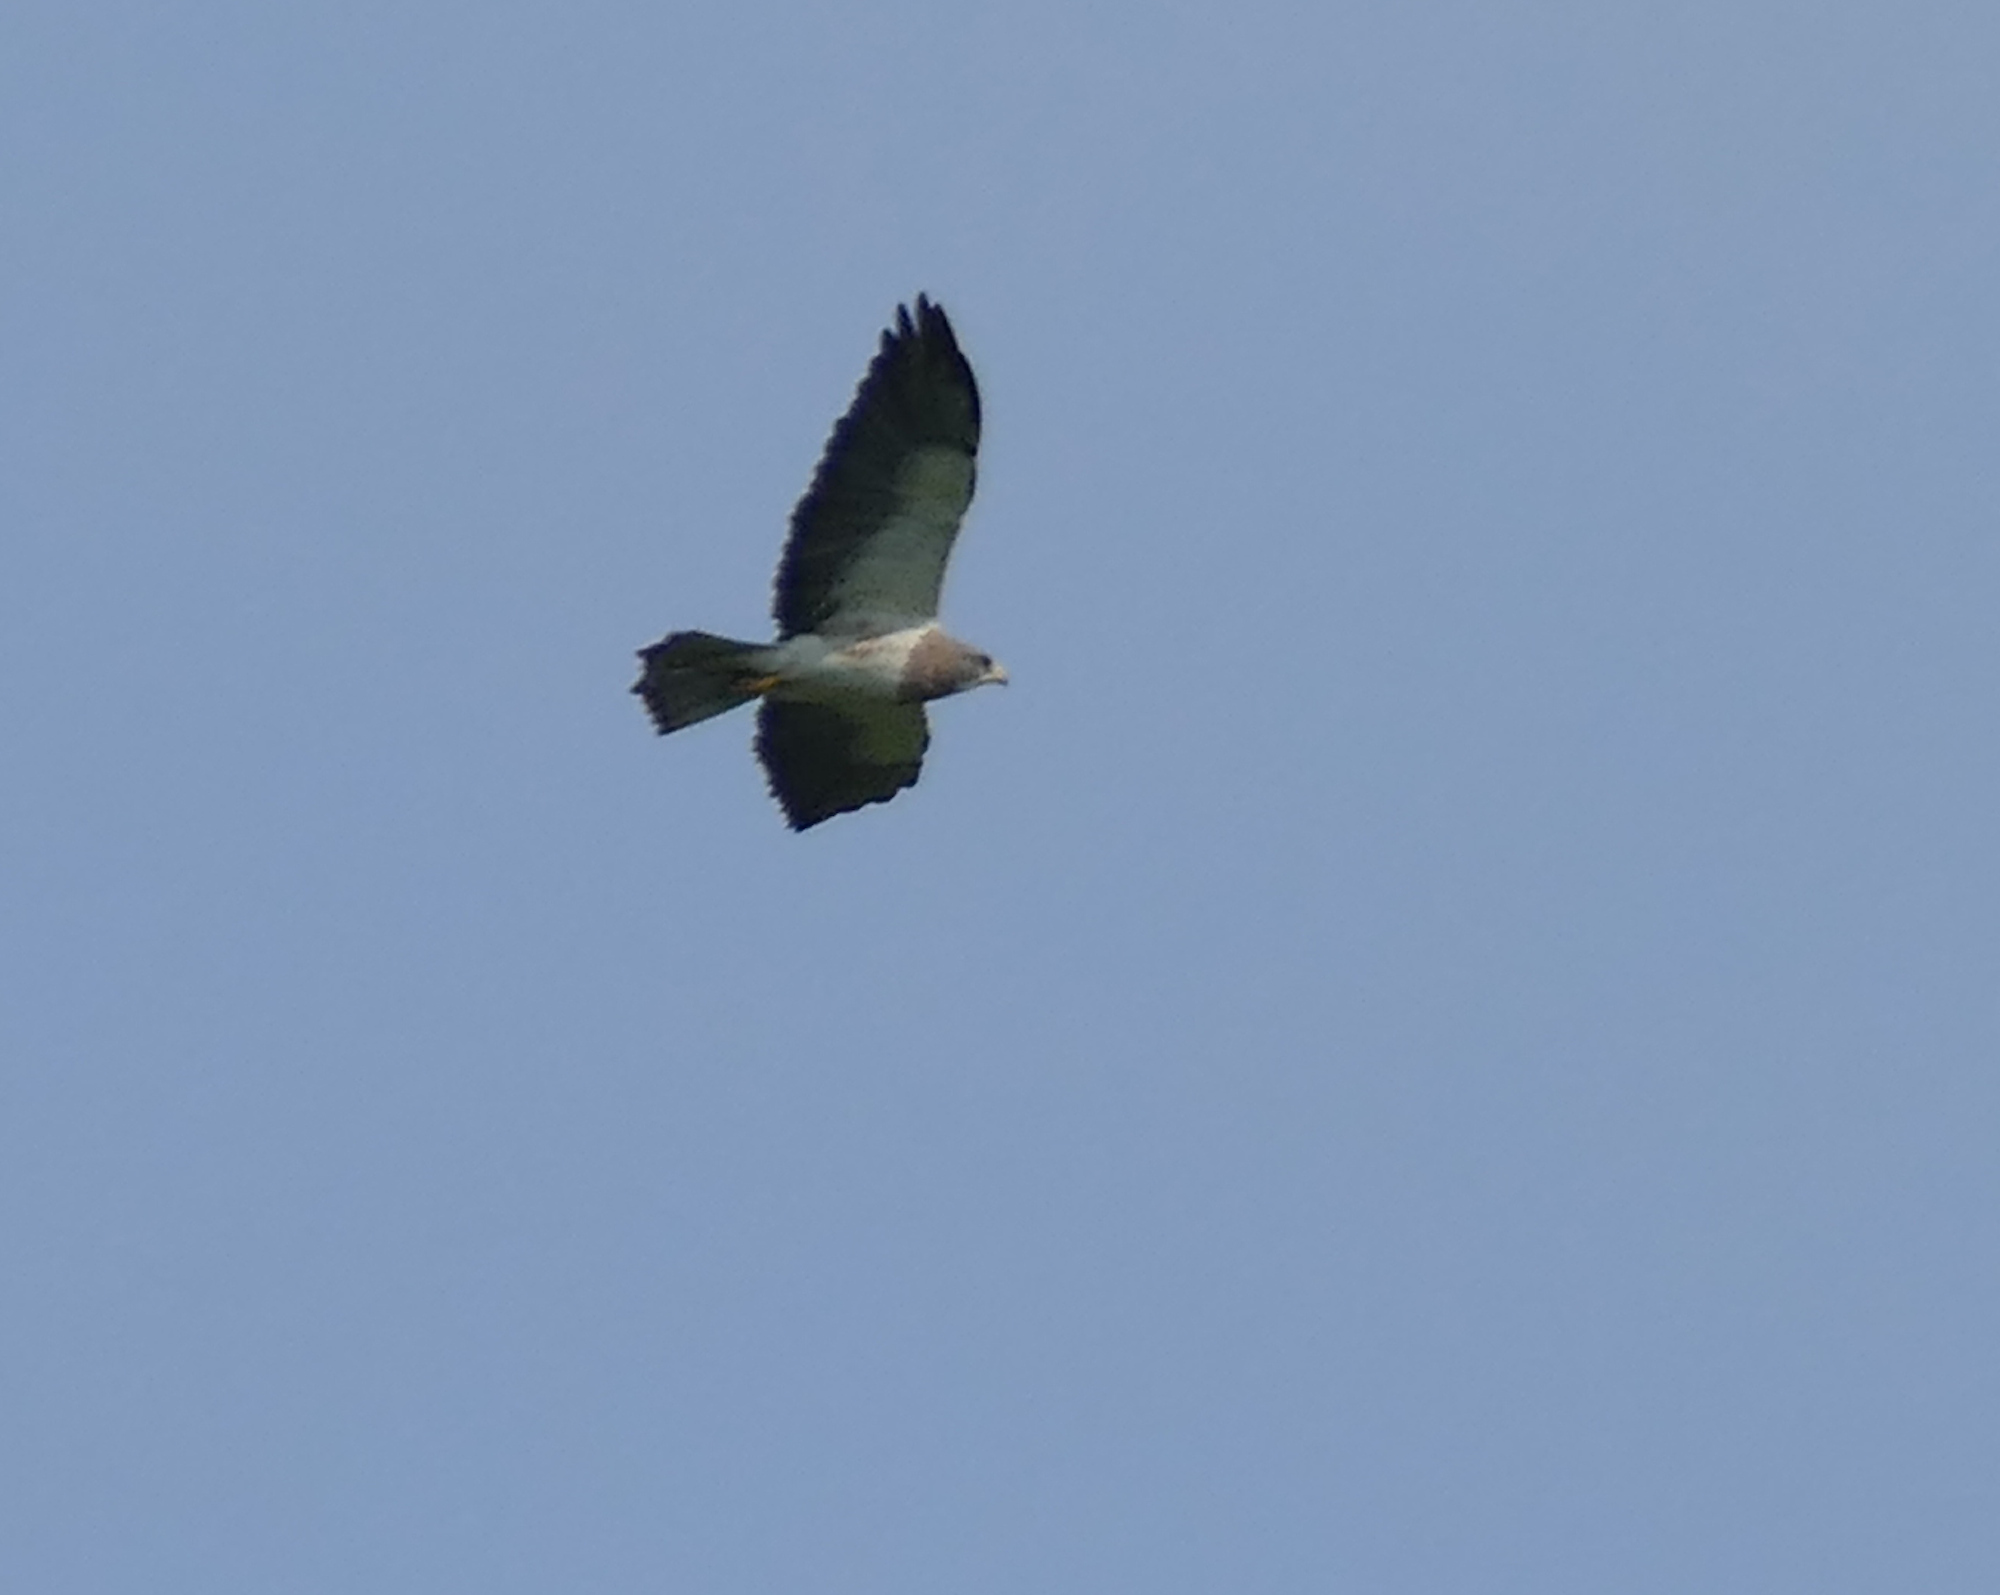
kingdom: Animalia
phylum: Chordata
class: Aves
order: Accipitriformes
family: Accipitridae
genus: Buteo
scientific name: Buteo swainsoni
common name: Swainson's hawk
